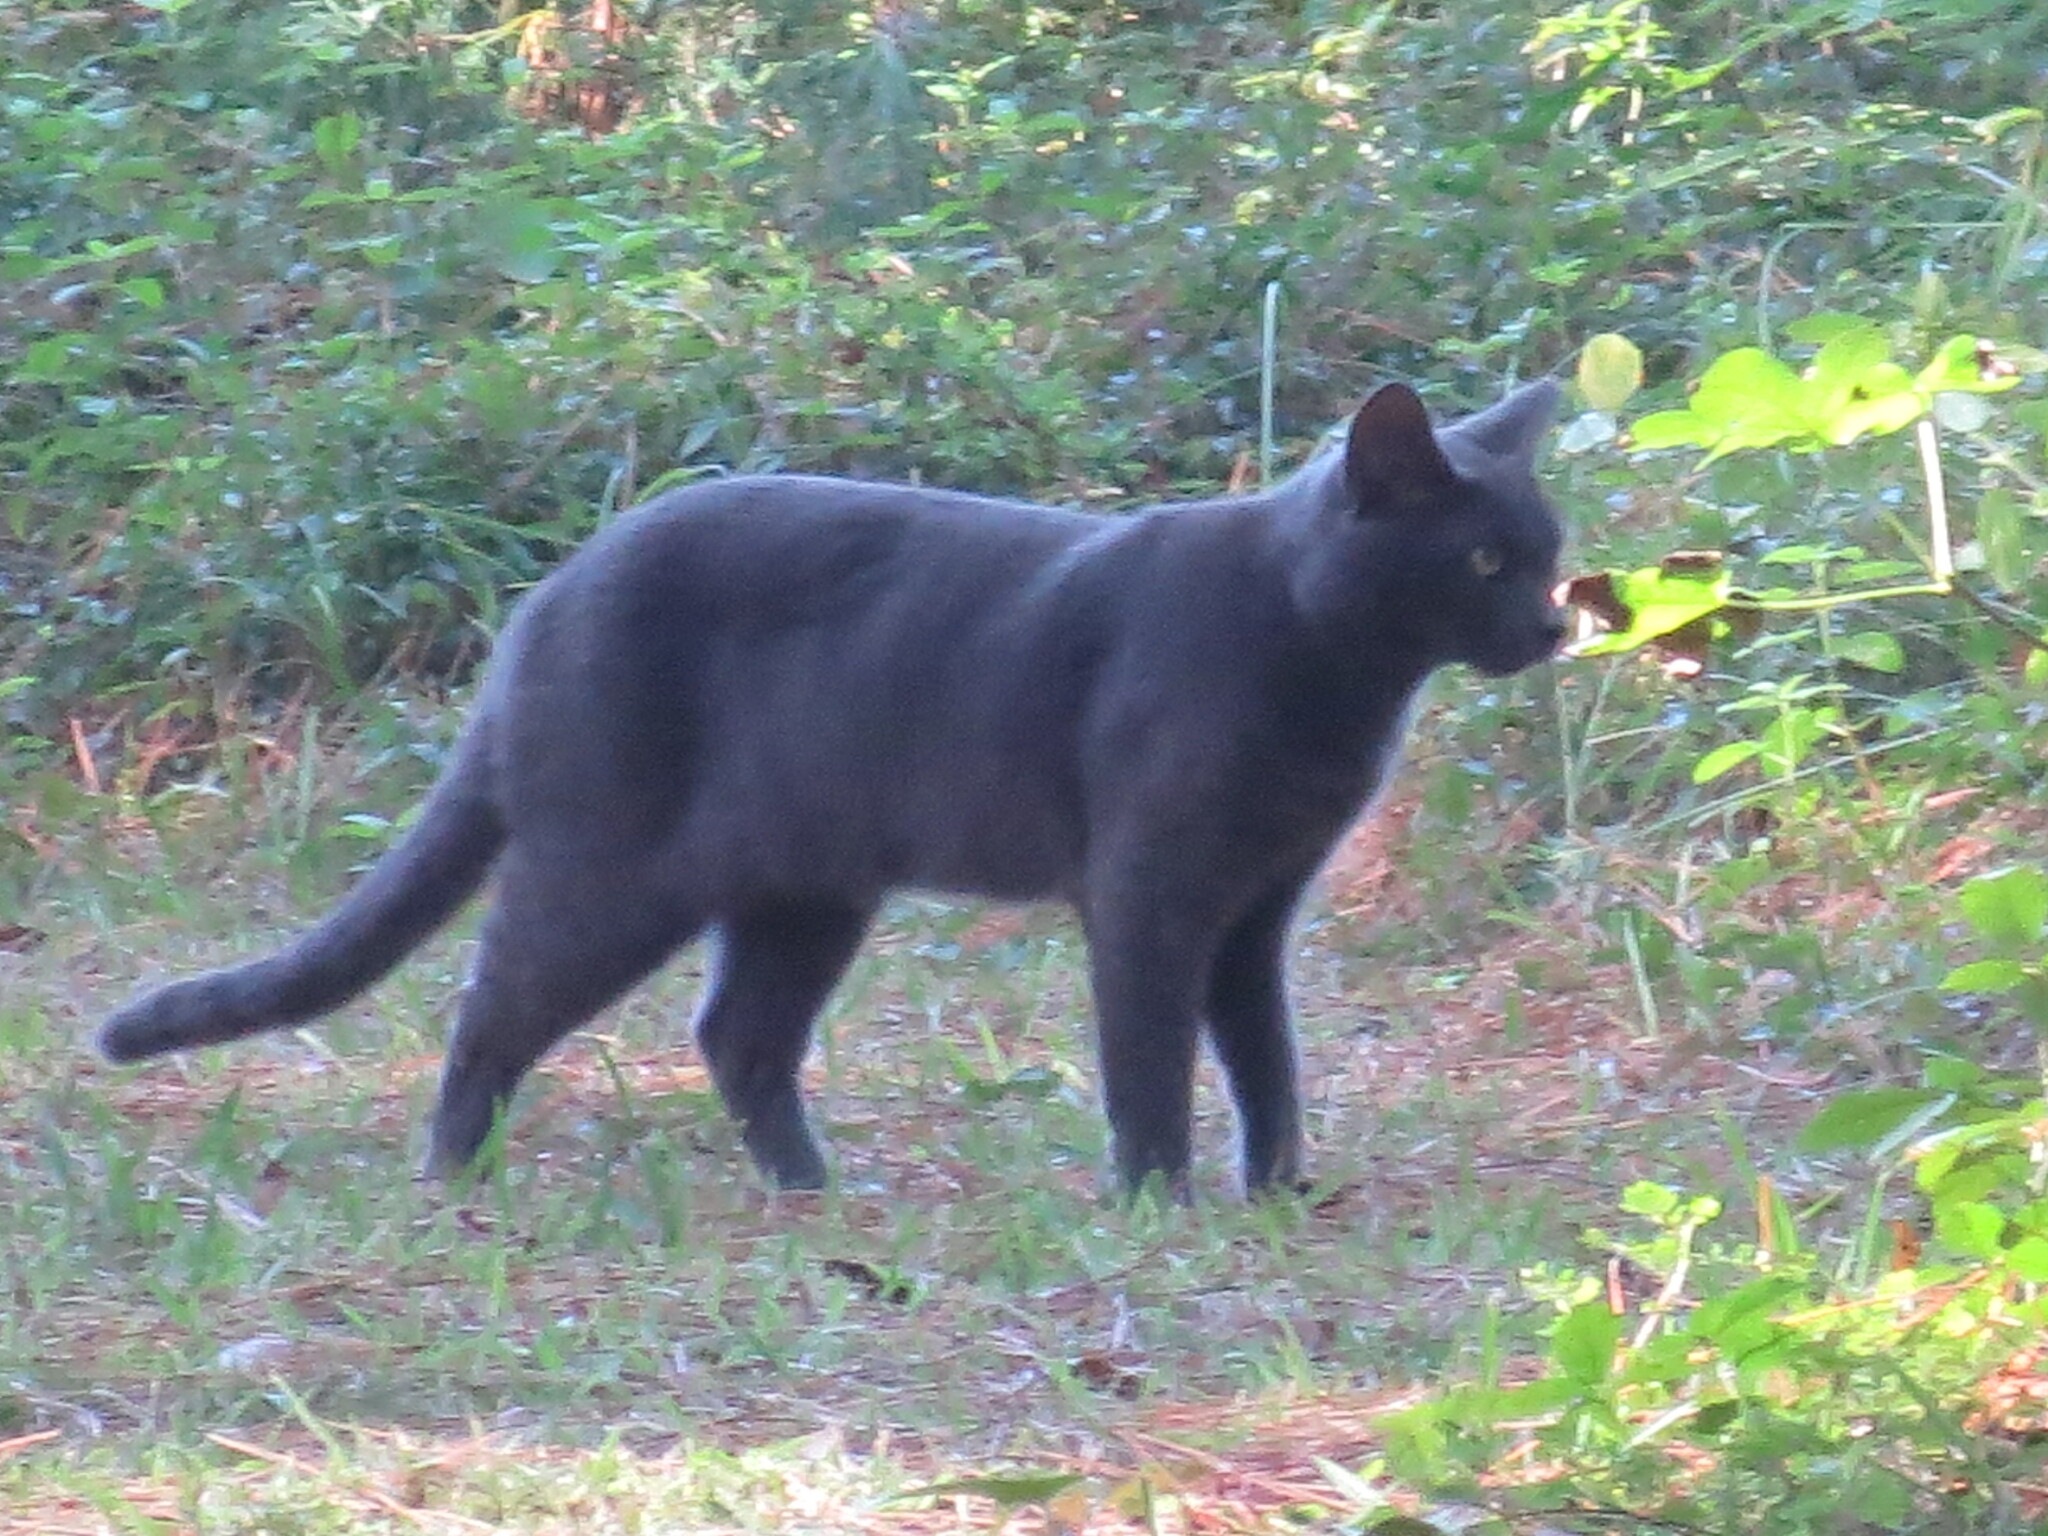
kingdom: Animalia
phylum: Chordata
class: Mammalia
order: Carnivora
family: Felidae
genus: Felis
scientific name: Felis catus
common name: Domestic cat
